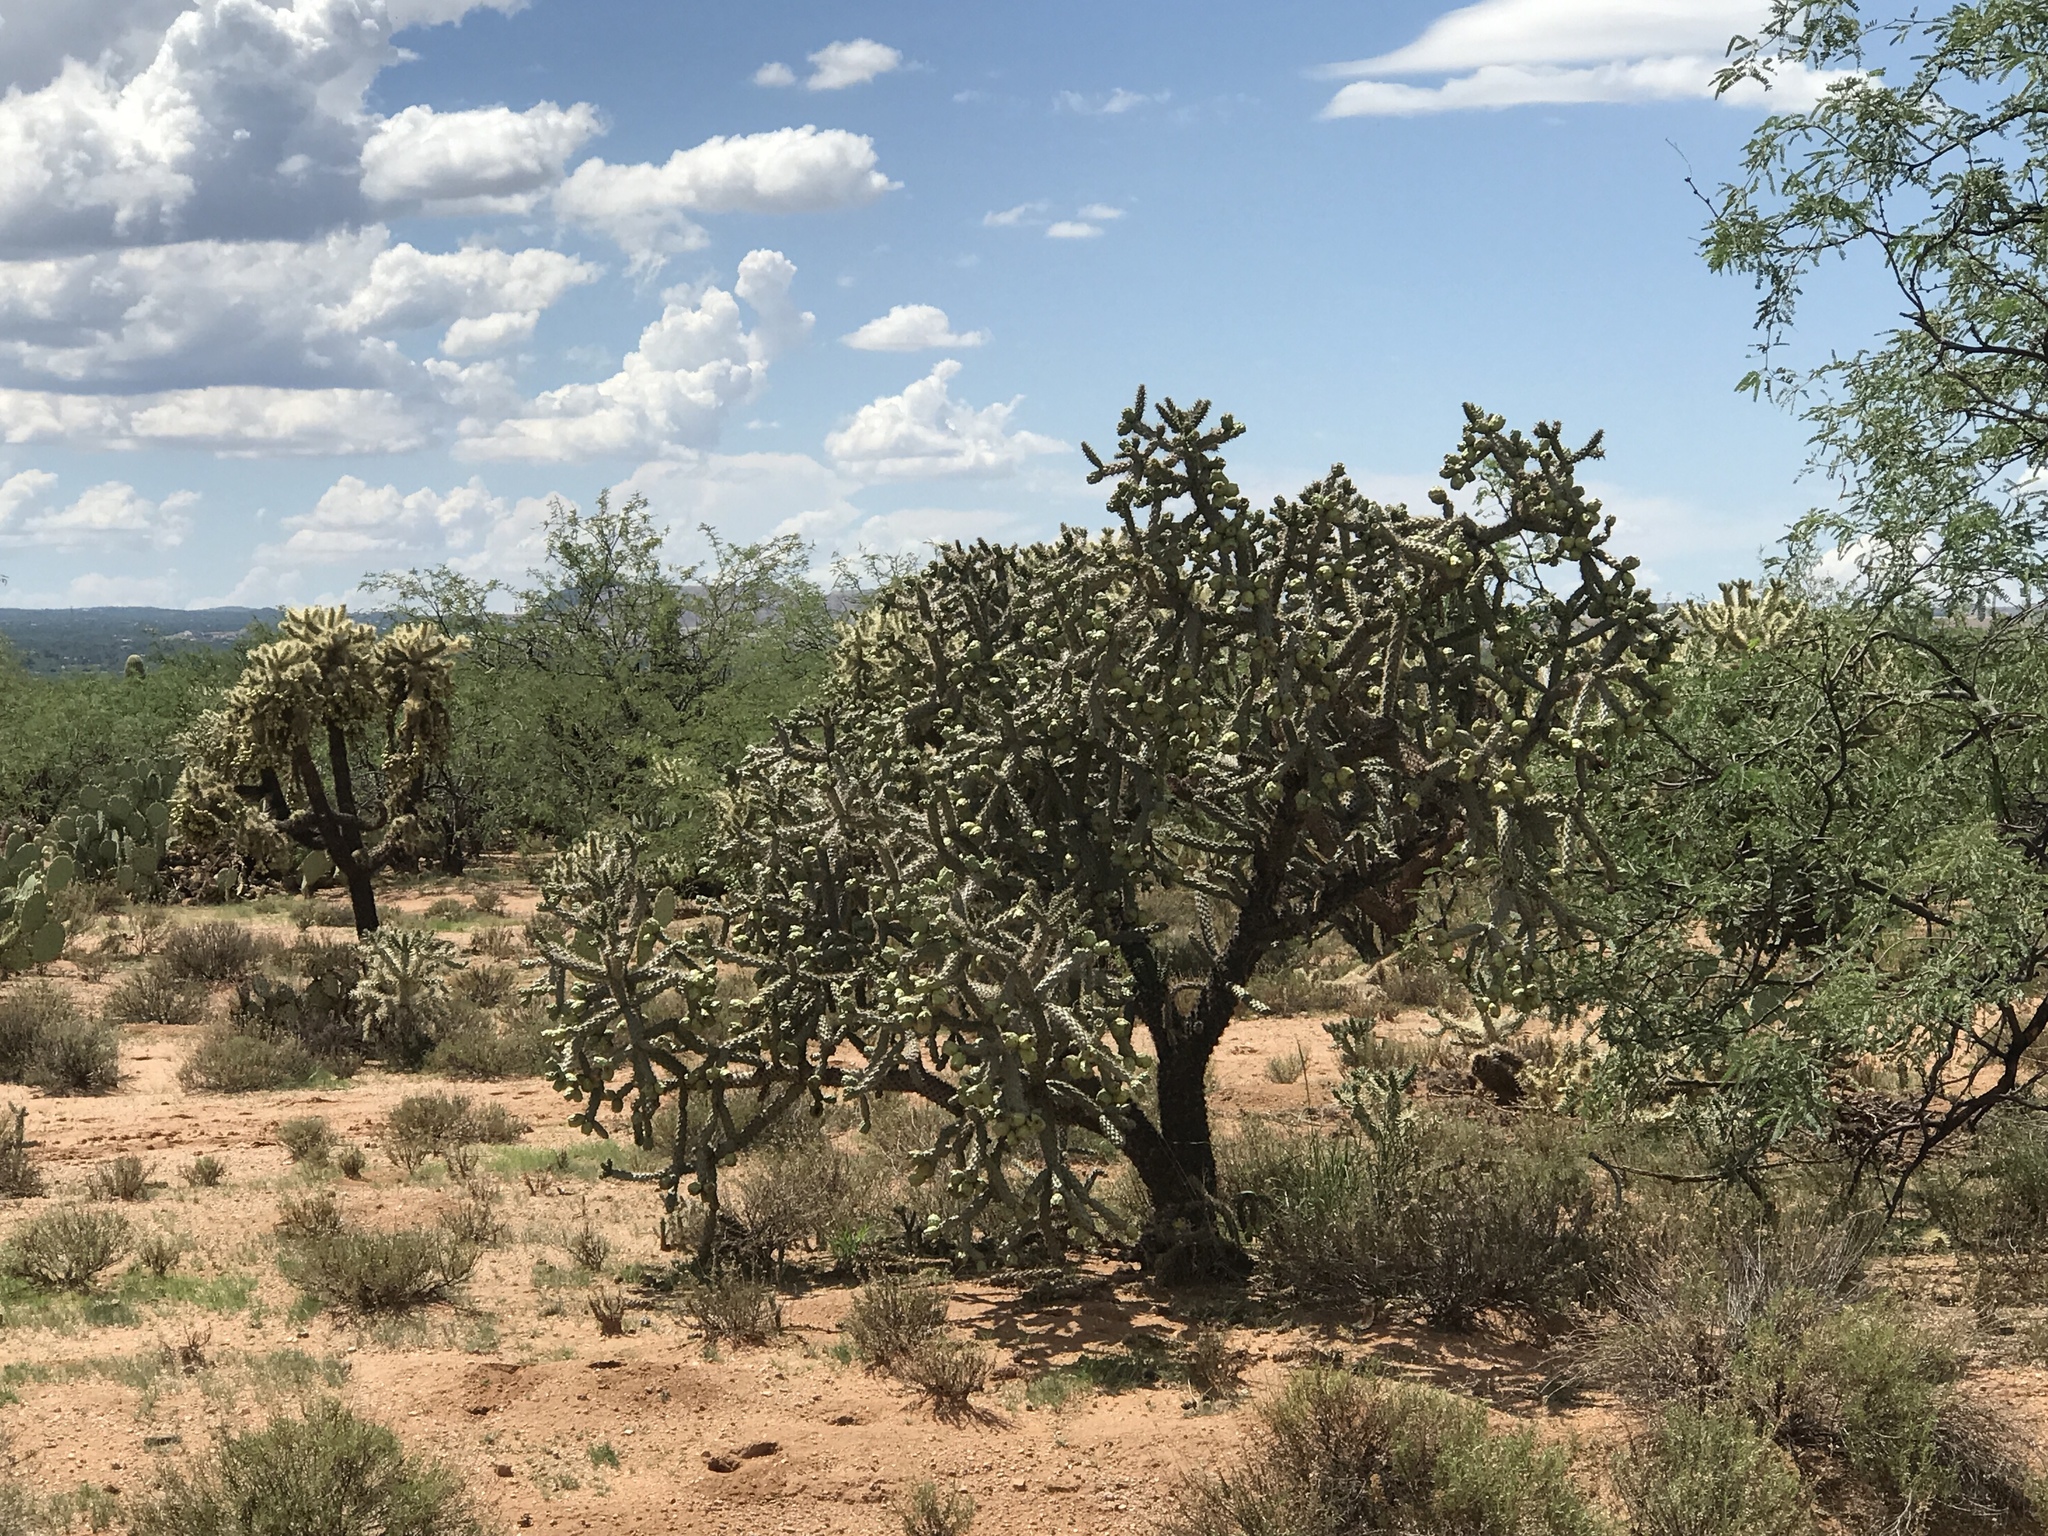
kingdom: Plantae
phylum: Tracheophyta
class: Magnoliopsida
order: Caryophyllales
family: Cactaceae
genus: Cylindropuntia
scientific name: Cylindropuntia fulgida
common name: Jumping cholla
